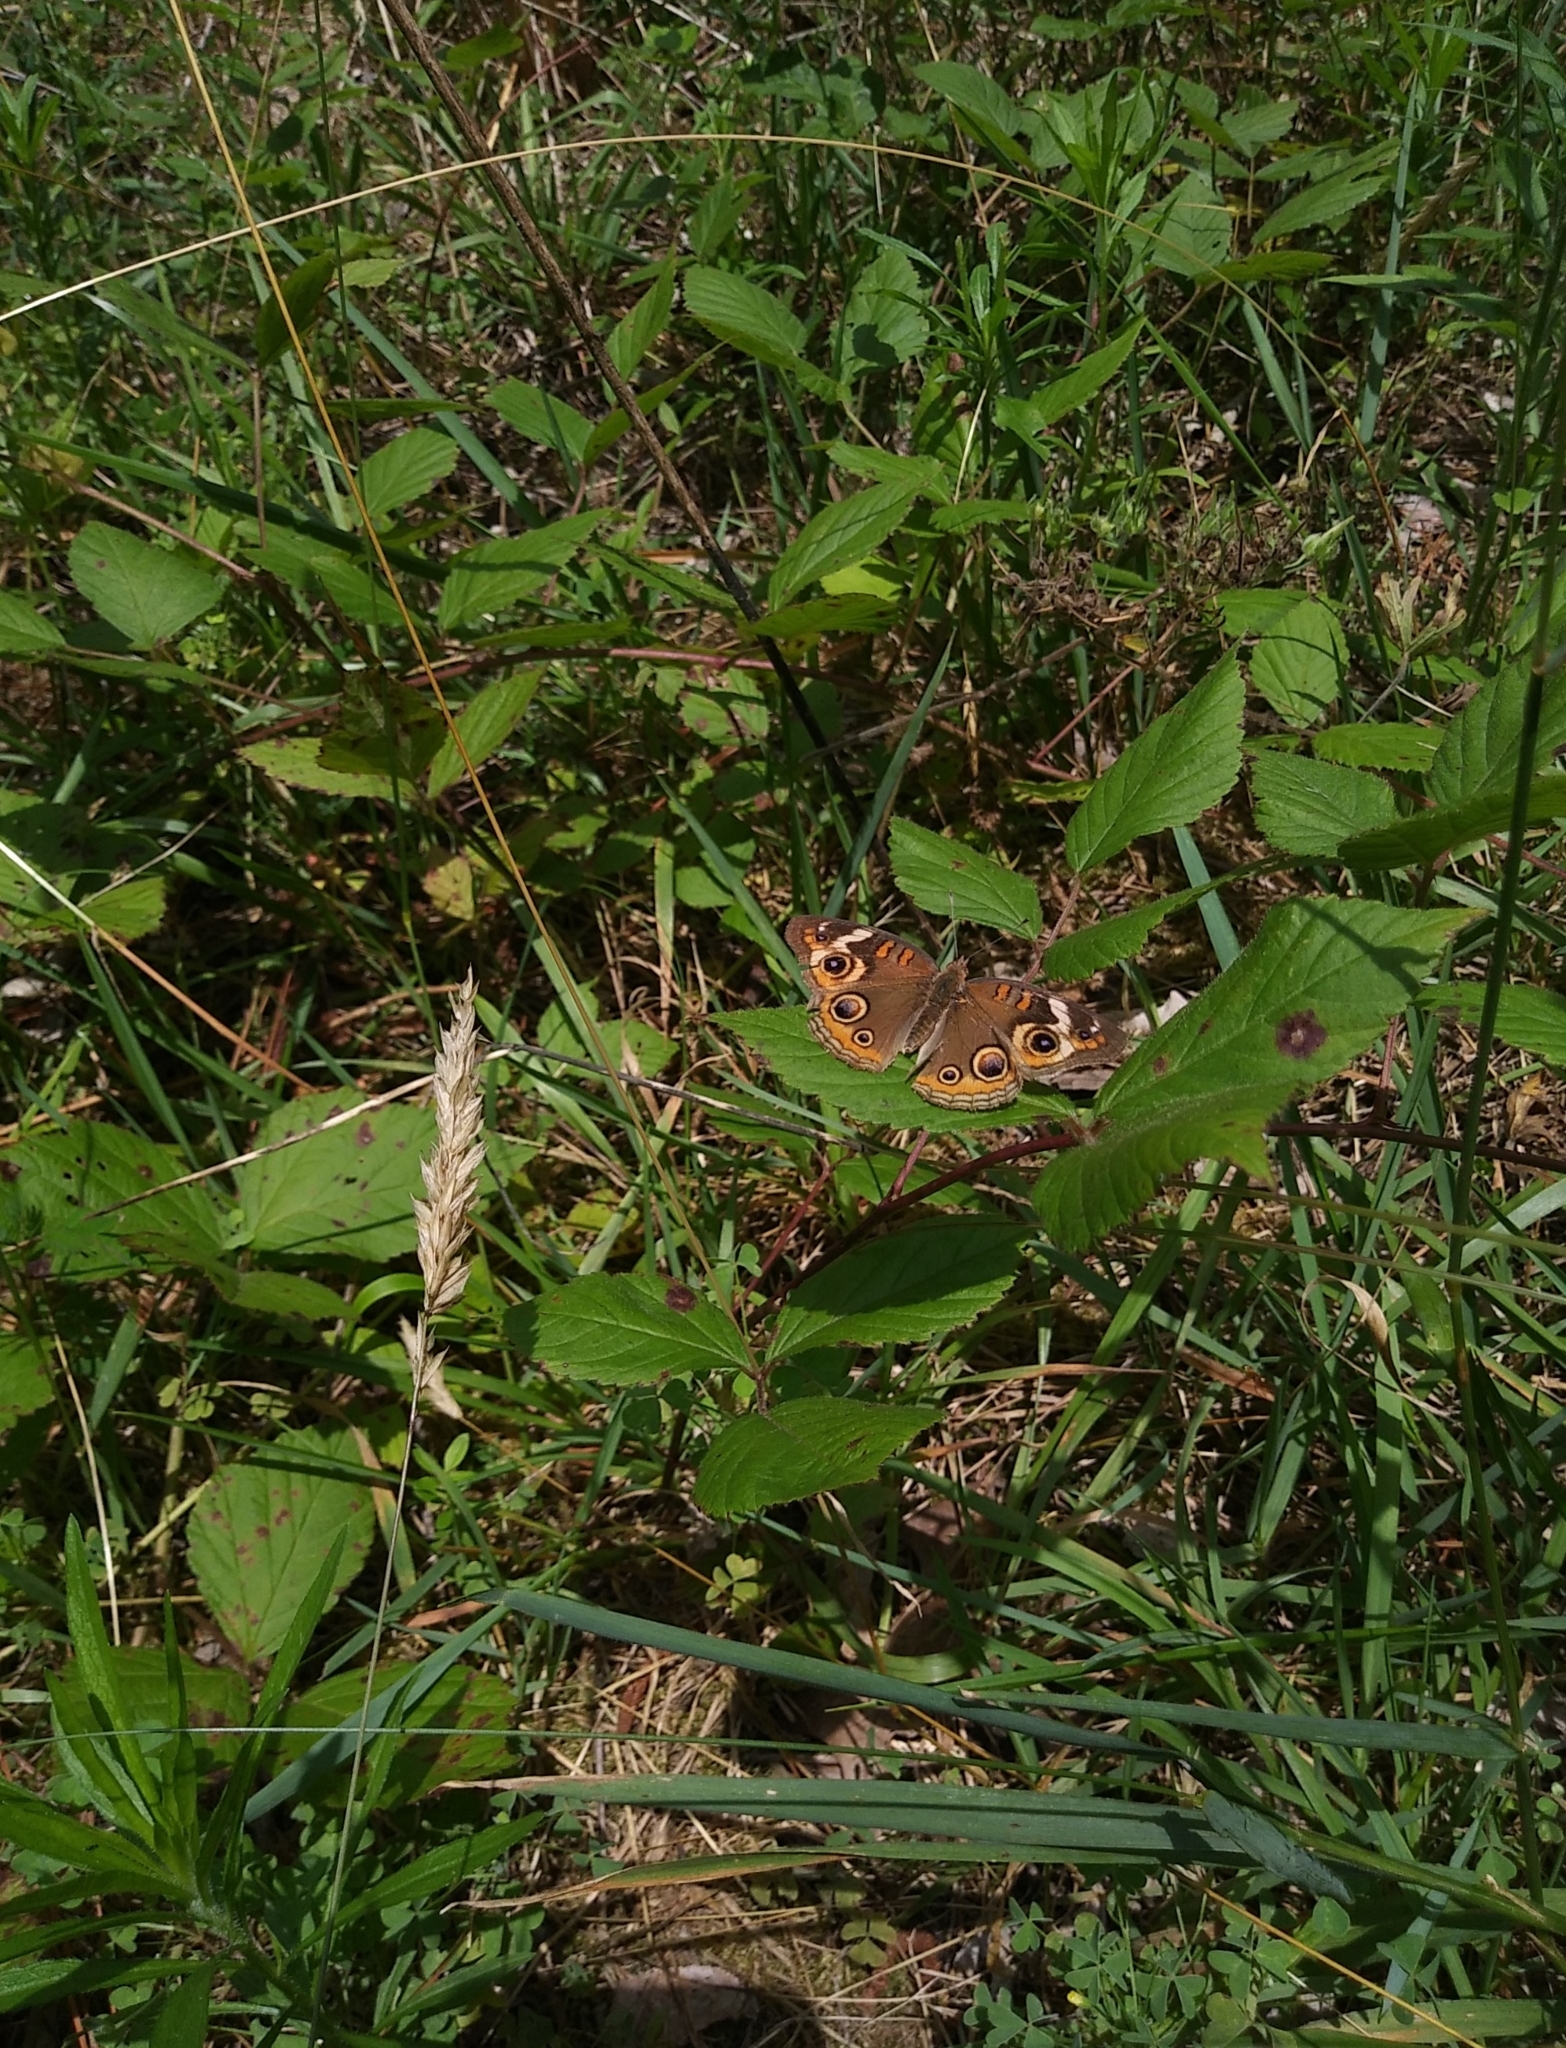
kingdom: Animalia
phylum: Arthropoda
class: Insecta
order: Lepidoptera
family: Nymphalidae
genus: Junonia
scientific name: Junonia coenia
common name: Common buckeye
